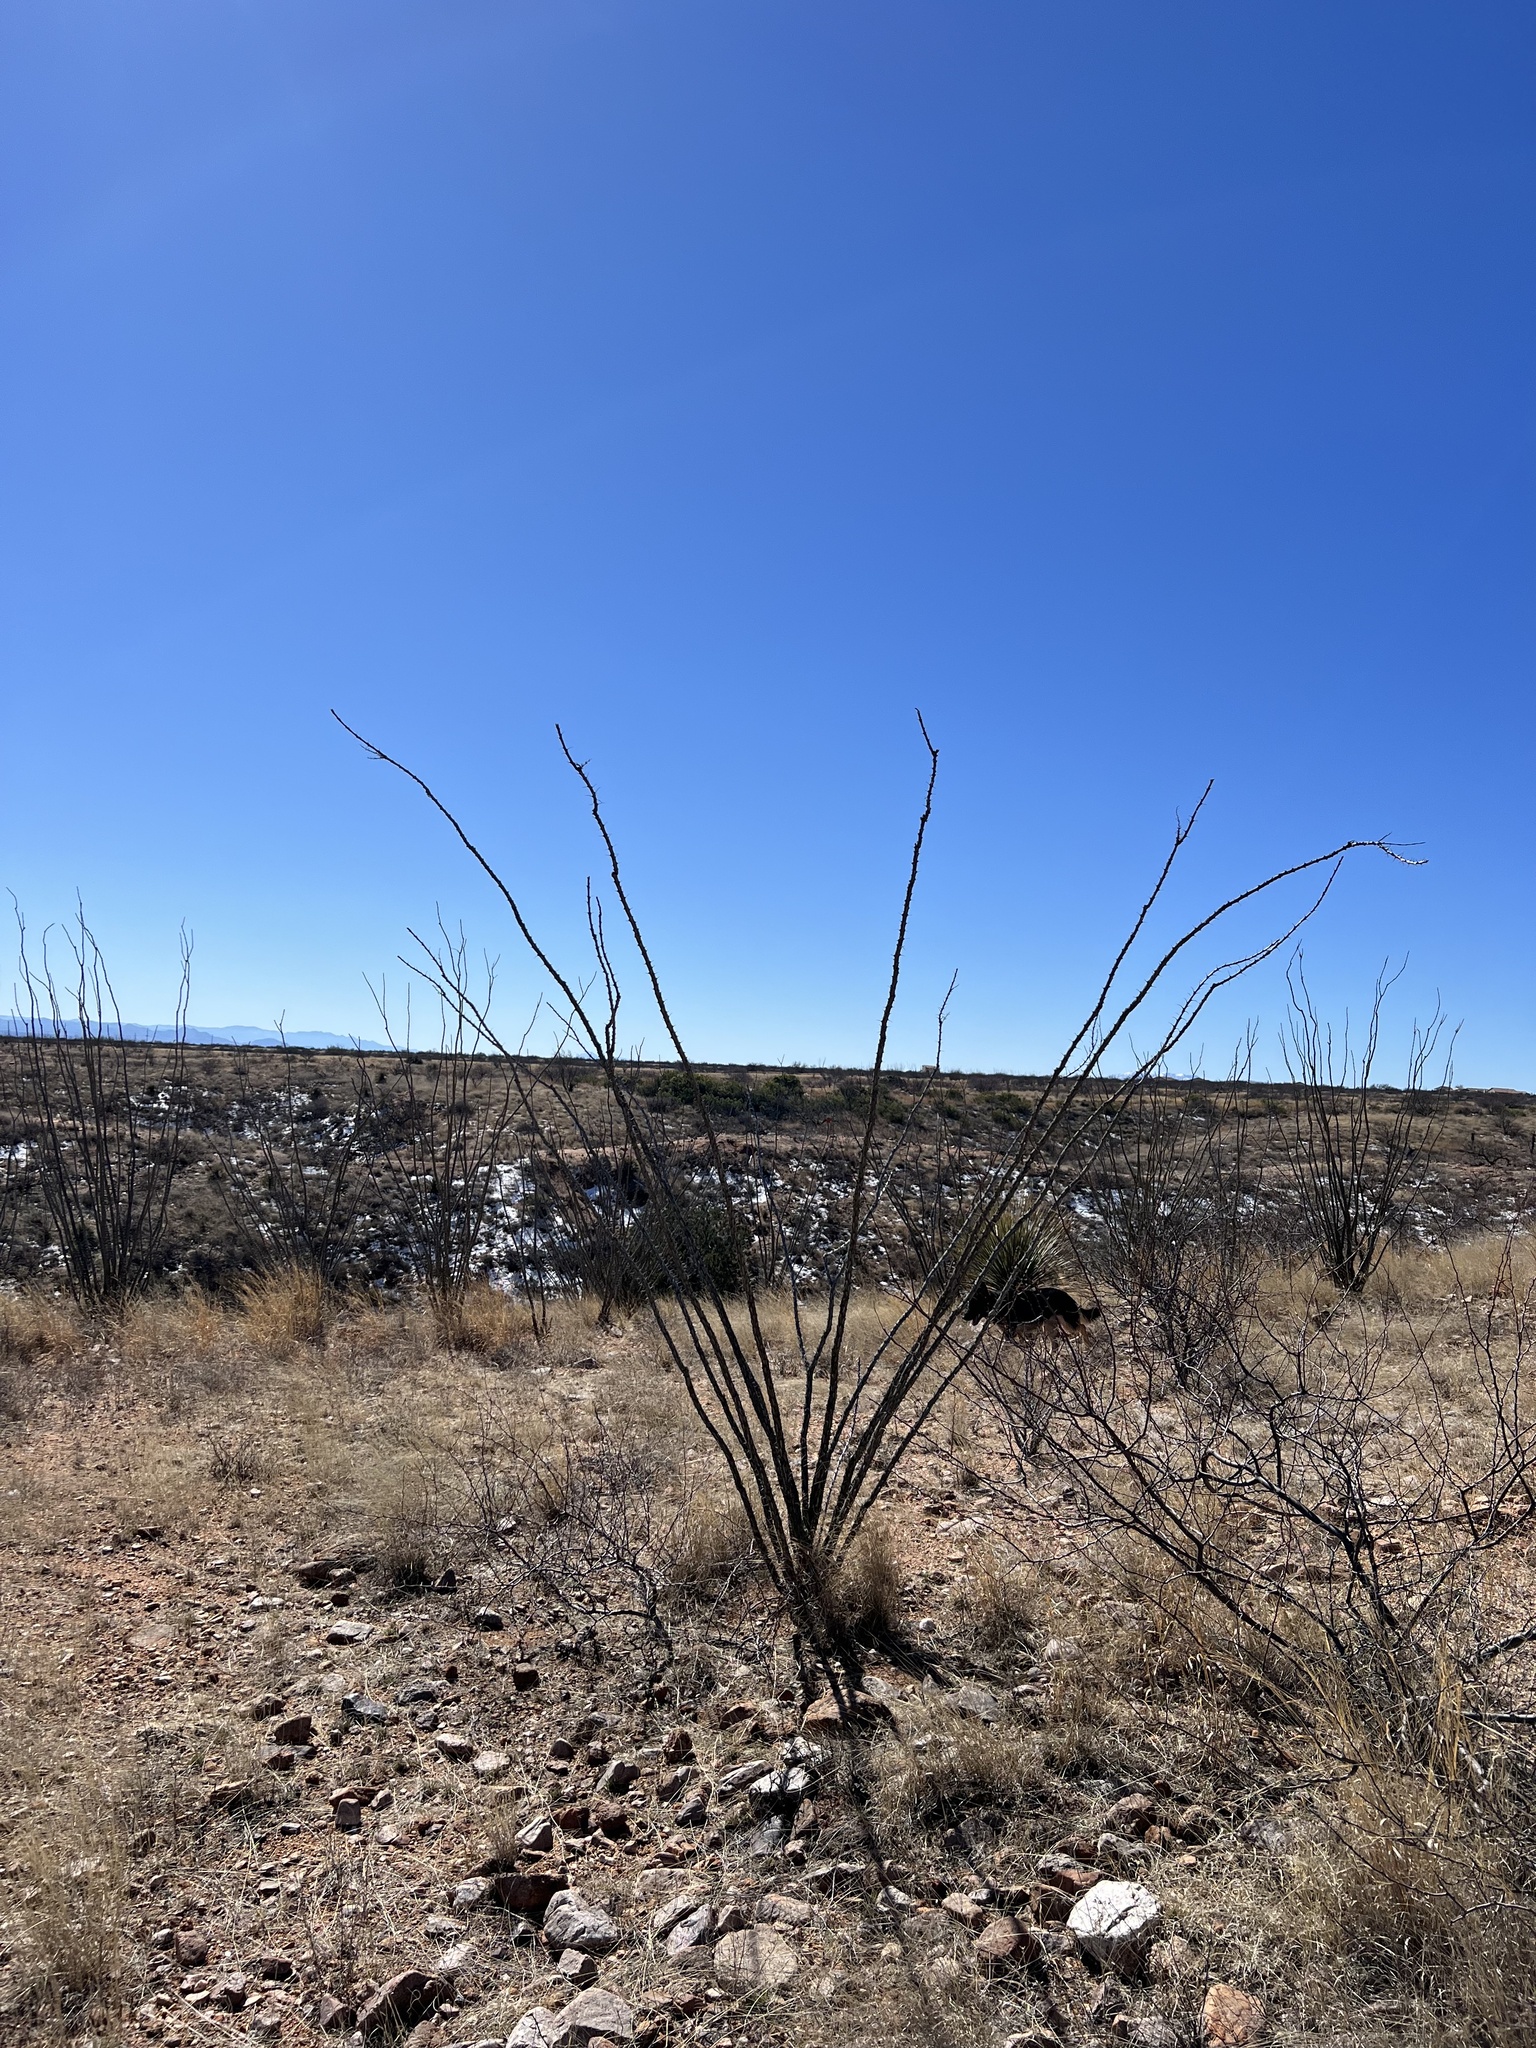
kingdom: Plantae
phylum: Tracheophyta
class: Magnoliopsida
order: Ericales
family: Fouquieriaceae
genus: Fouquieria
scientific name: Fouquieria splendens
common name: Vine-cactus
